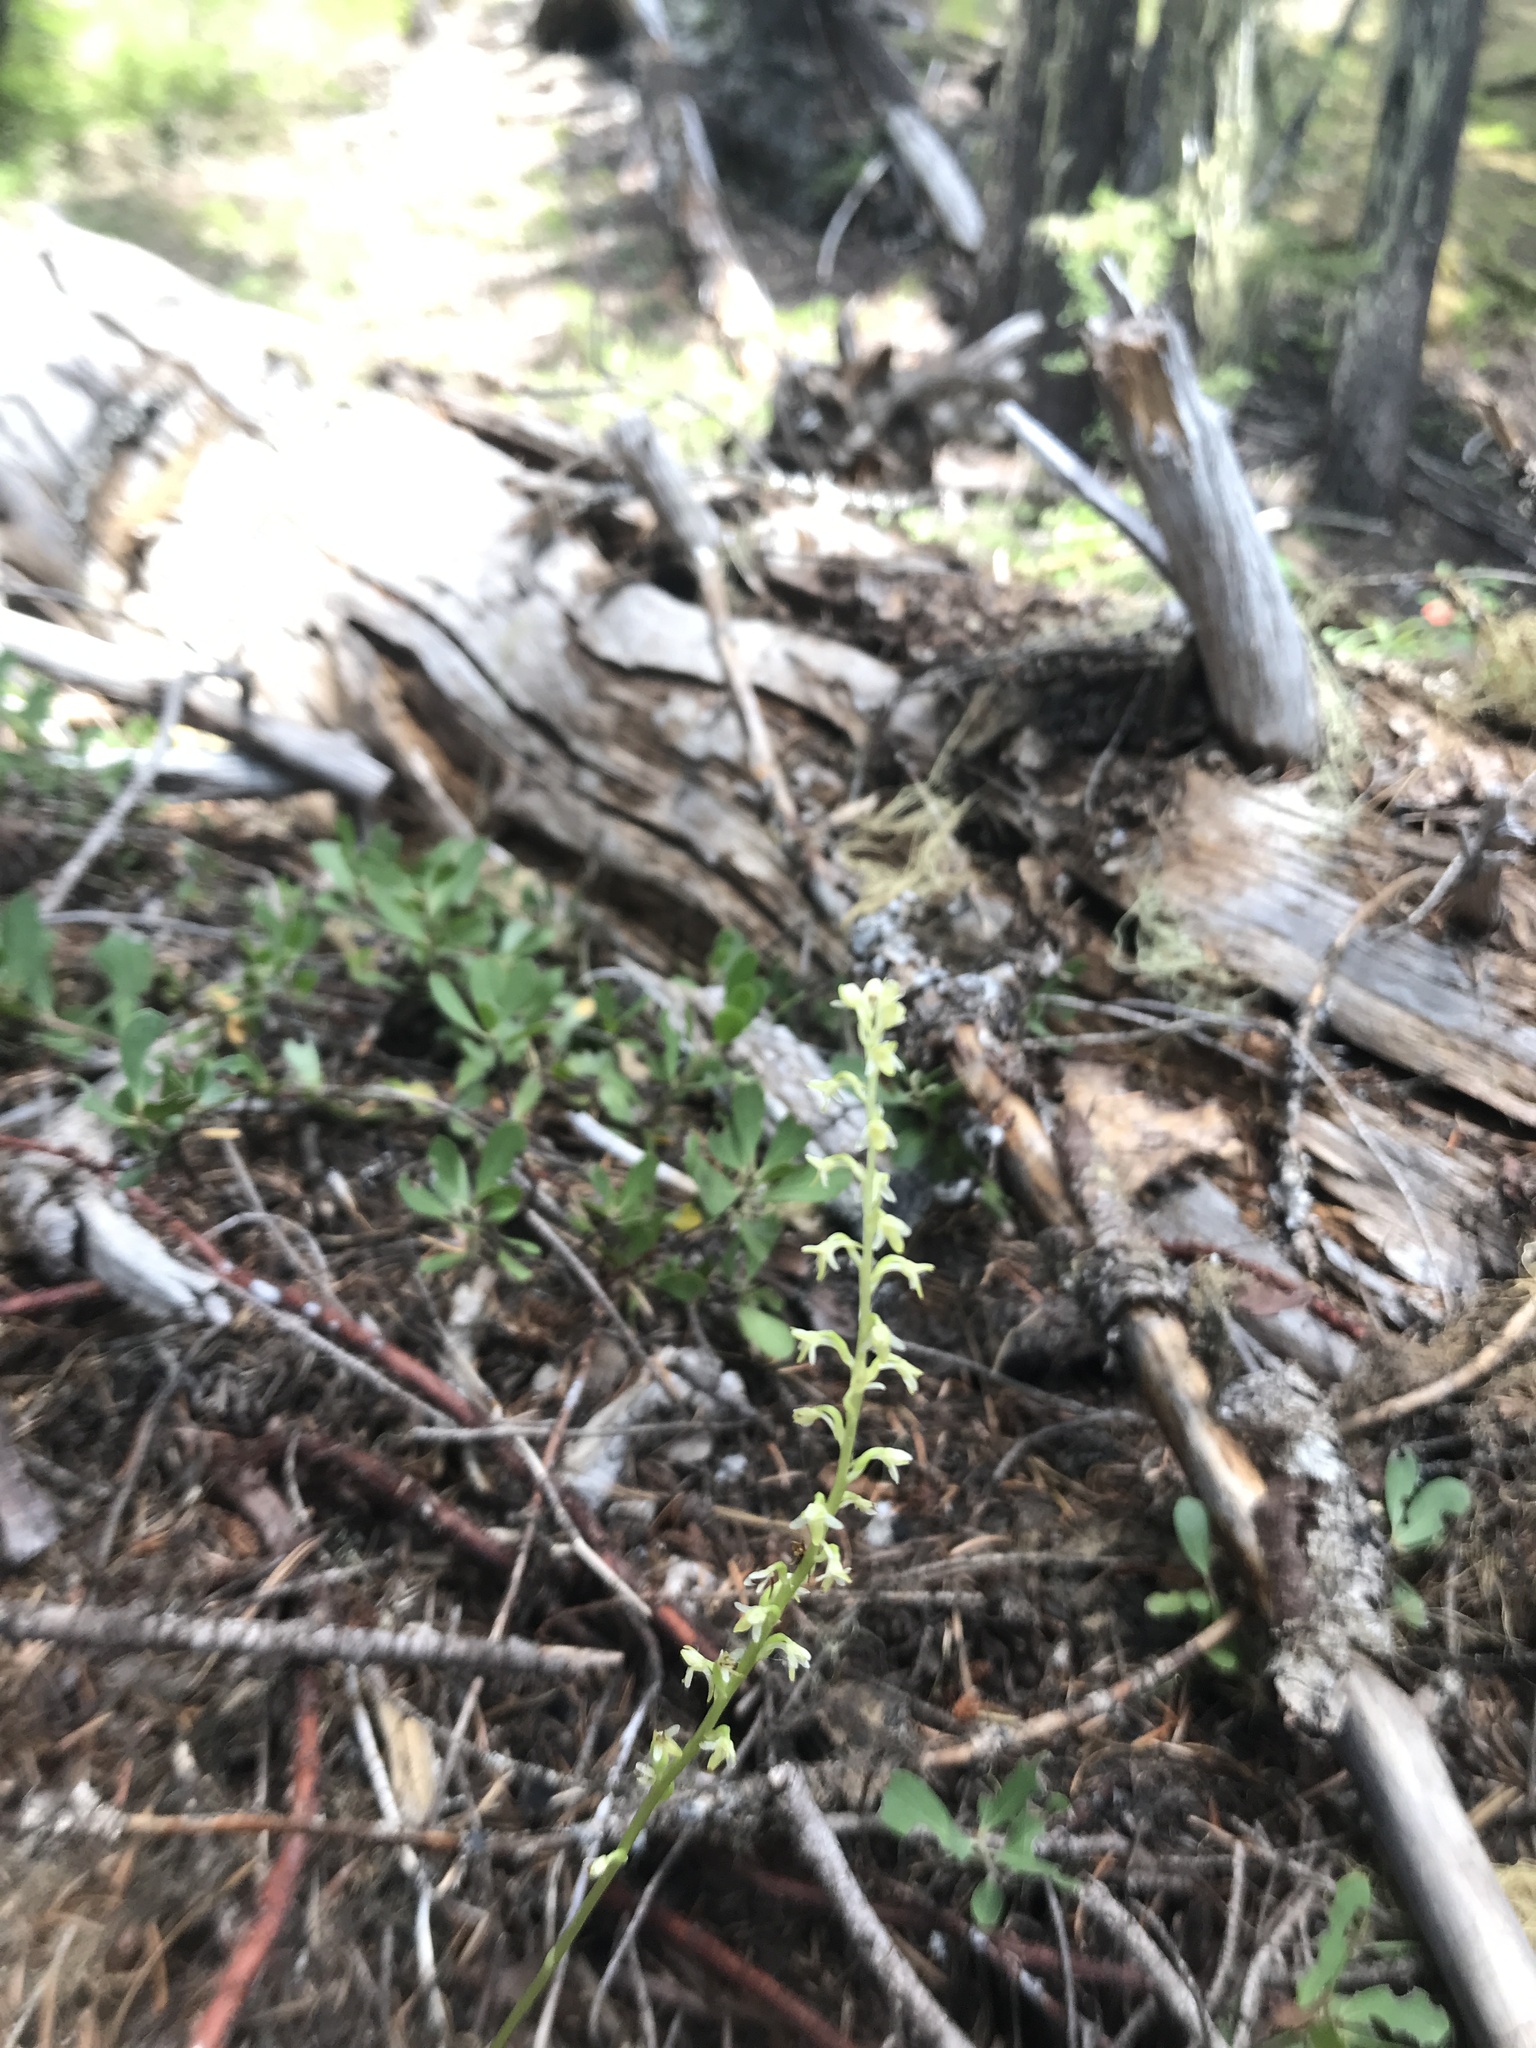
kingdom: Plantae
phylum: Tracheophyta
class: Liliopsida
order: Asparagales
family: Orchidaceae
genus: Platanthera
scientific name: Platanthera unalascensis
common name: Alaska bog orchid
